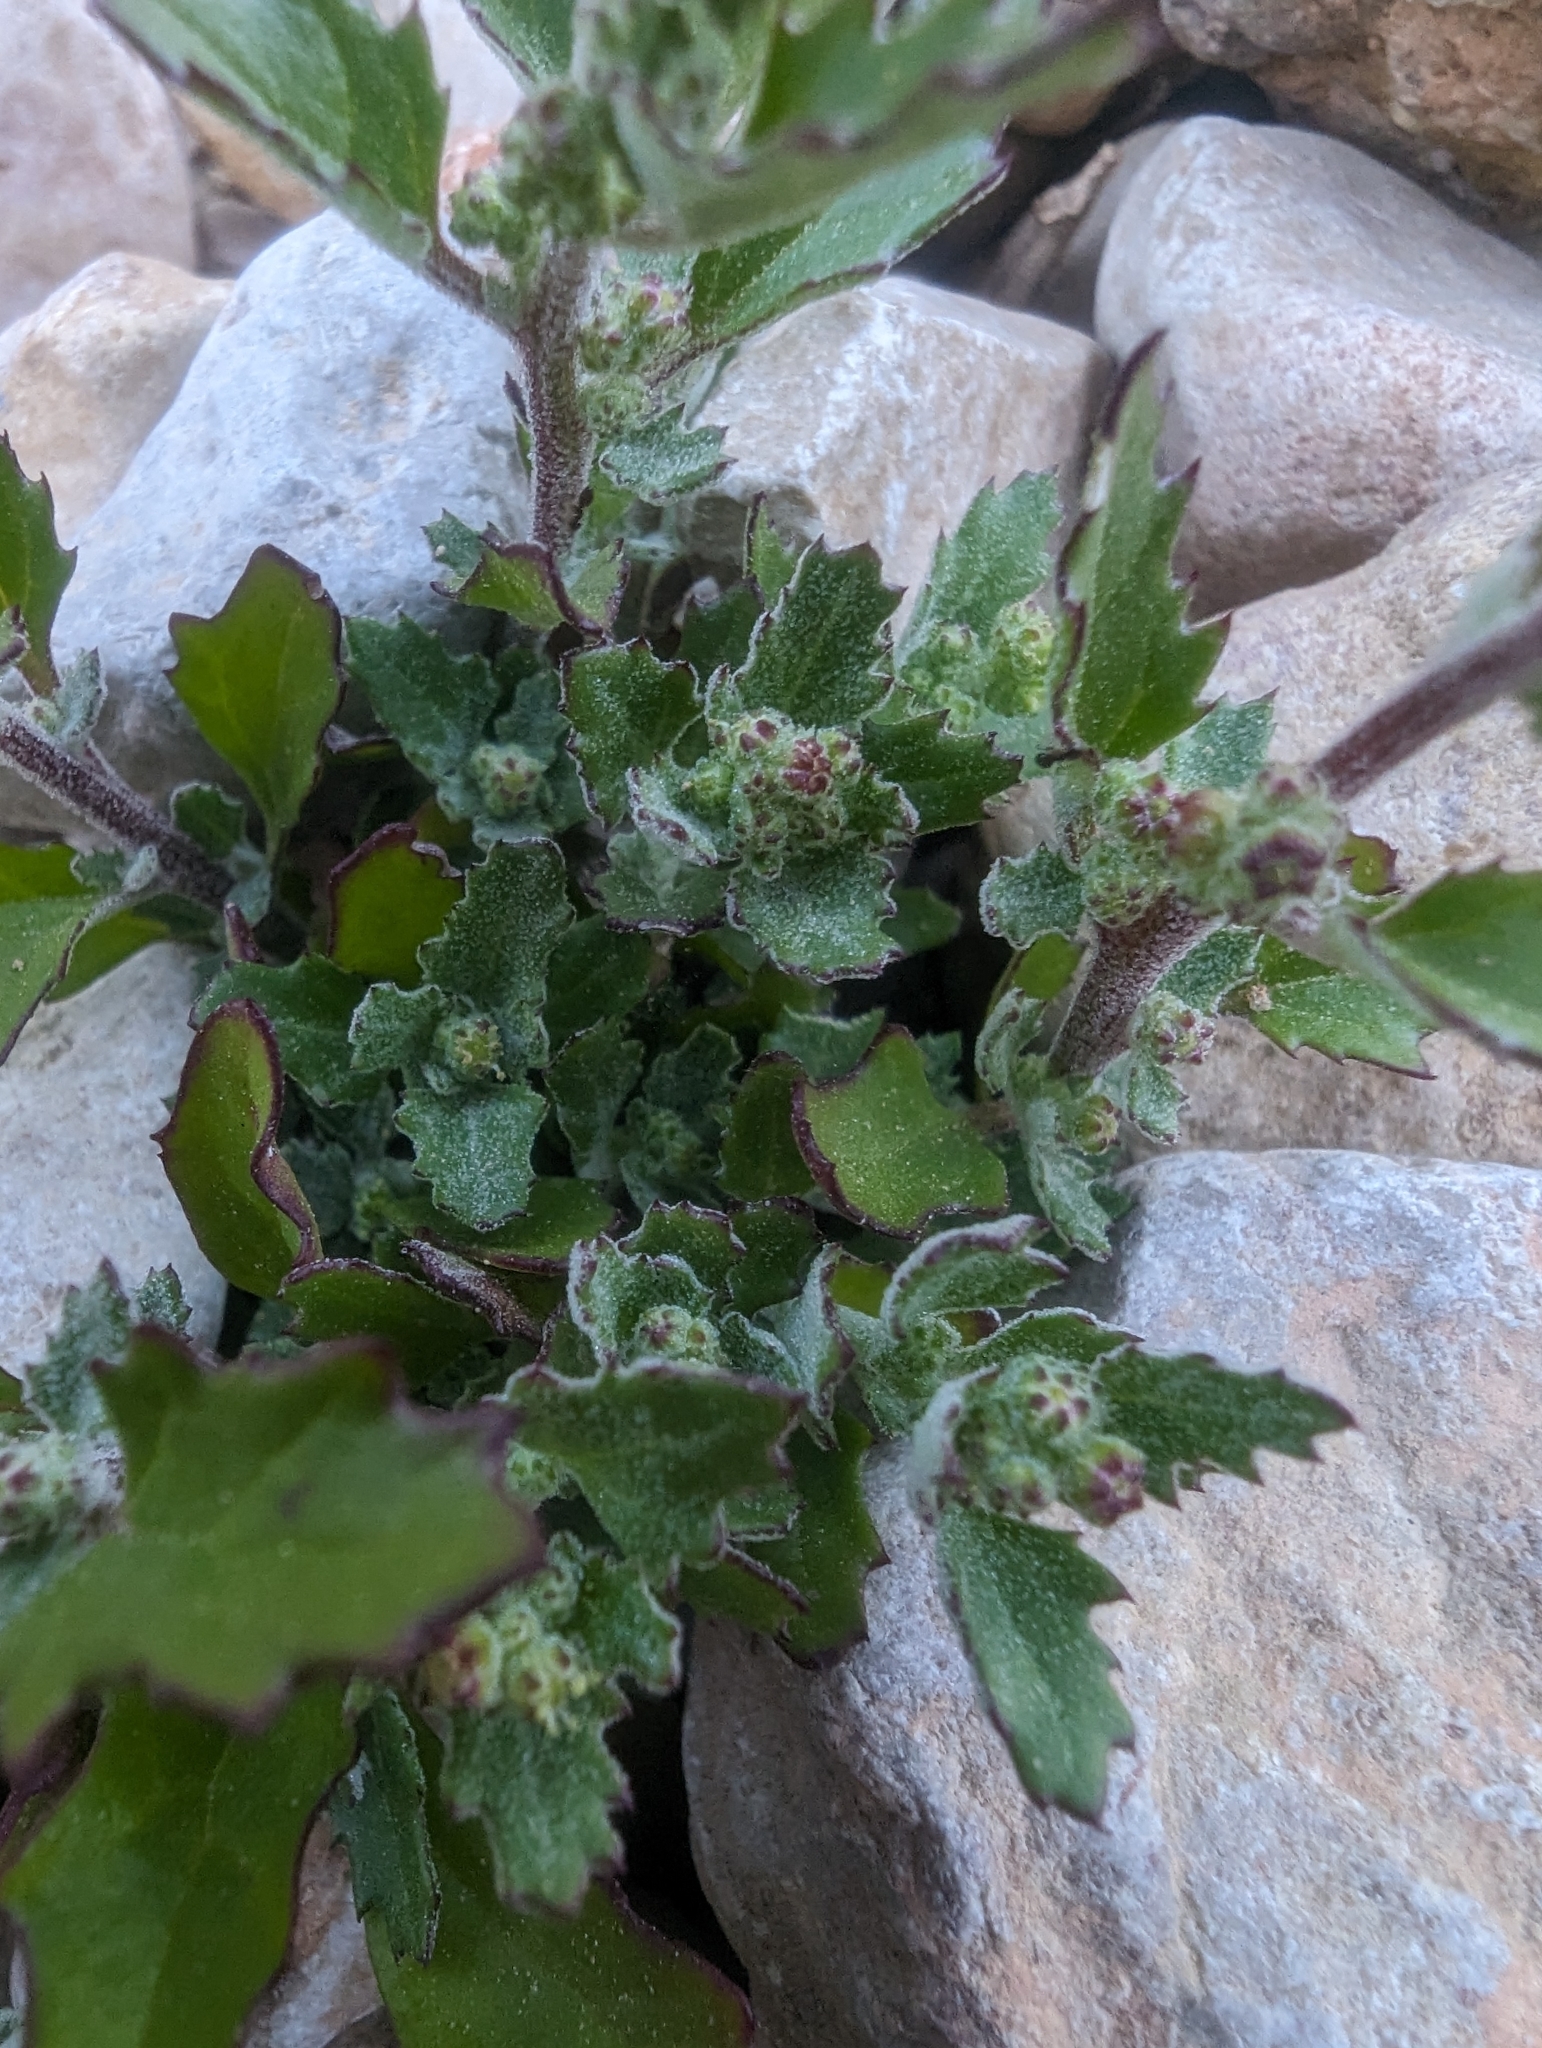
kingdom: Plantae
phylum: Tracheophyta
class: Magnoliopsida
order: Caryophyllales
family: Amaranthaceae
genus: Chenopodiastrum
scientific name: Chenopodiastrum murale
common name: Sowbane
